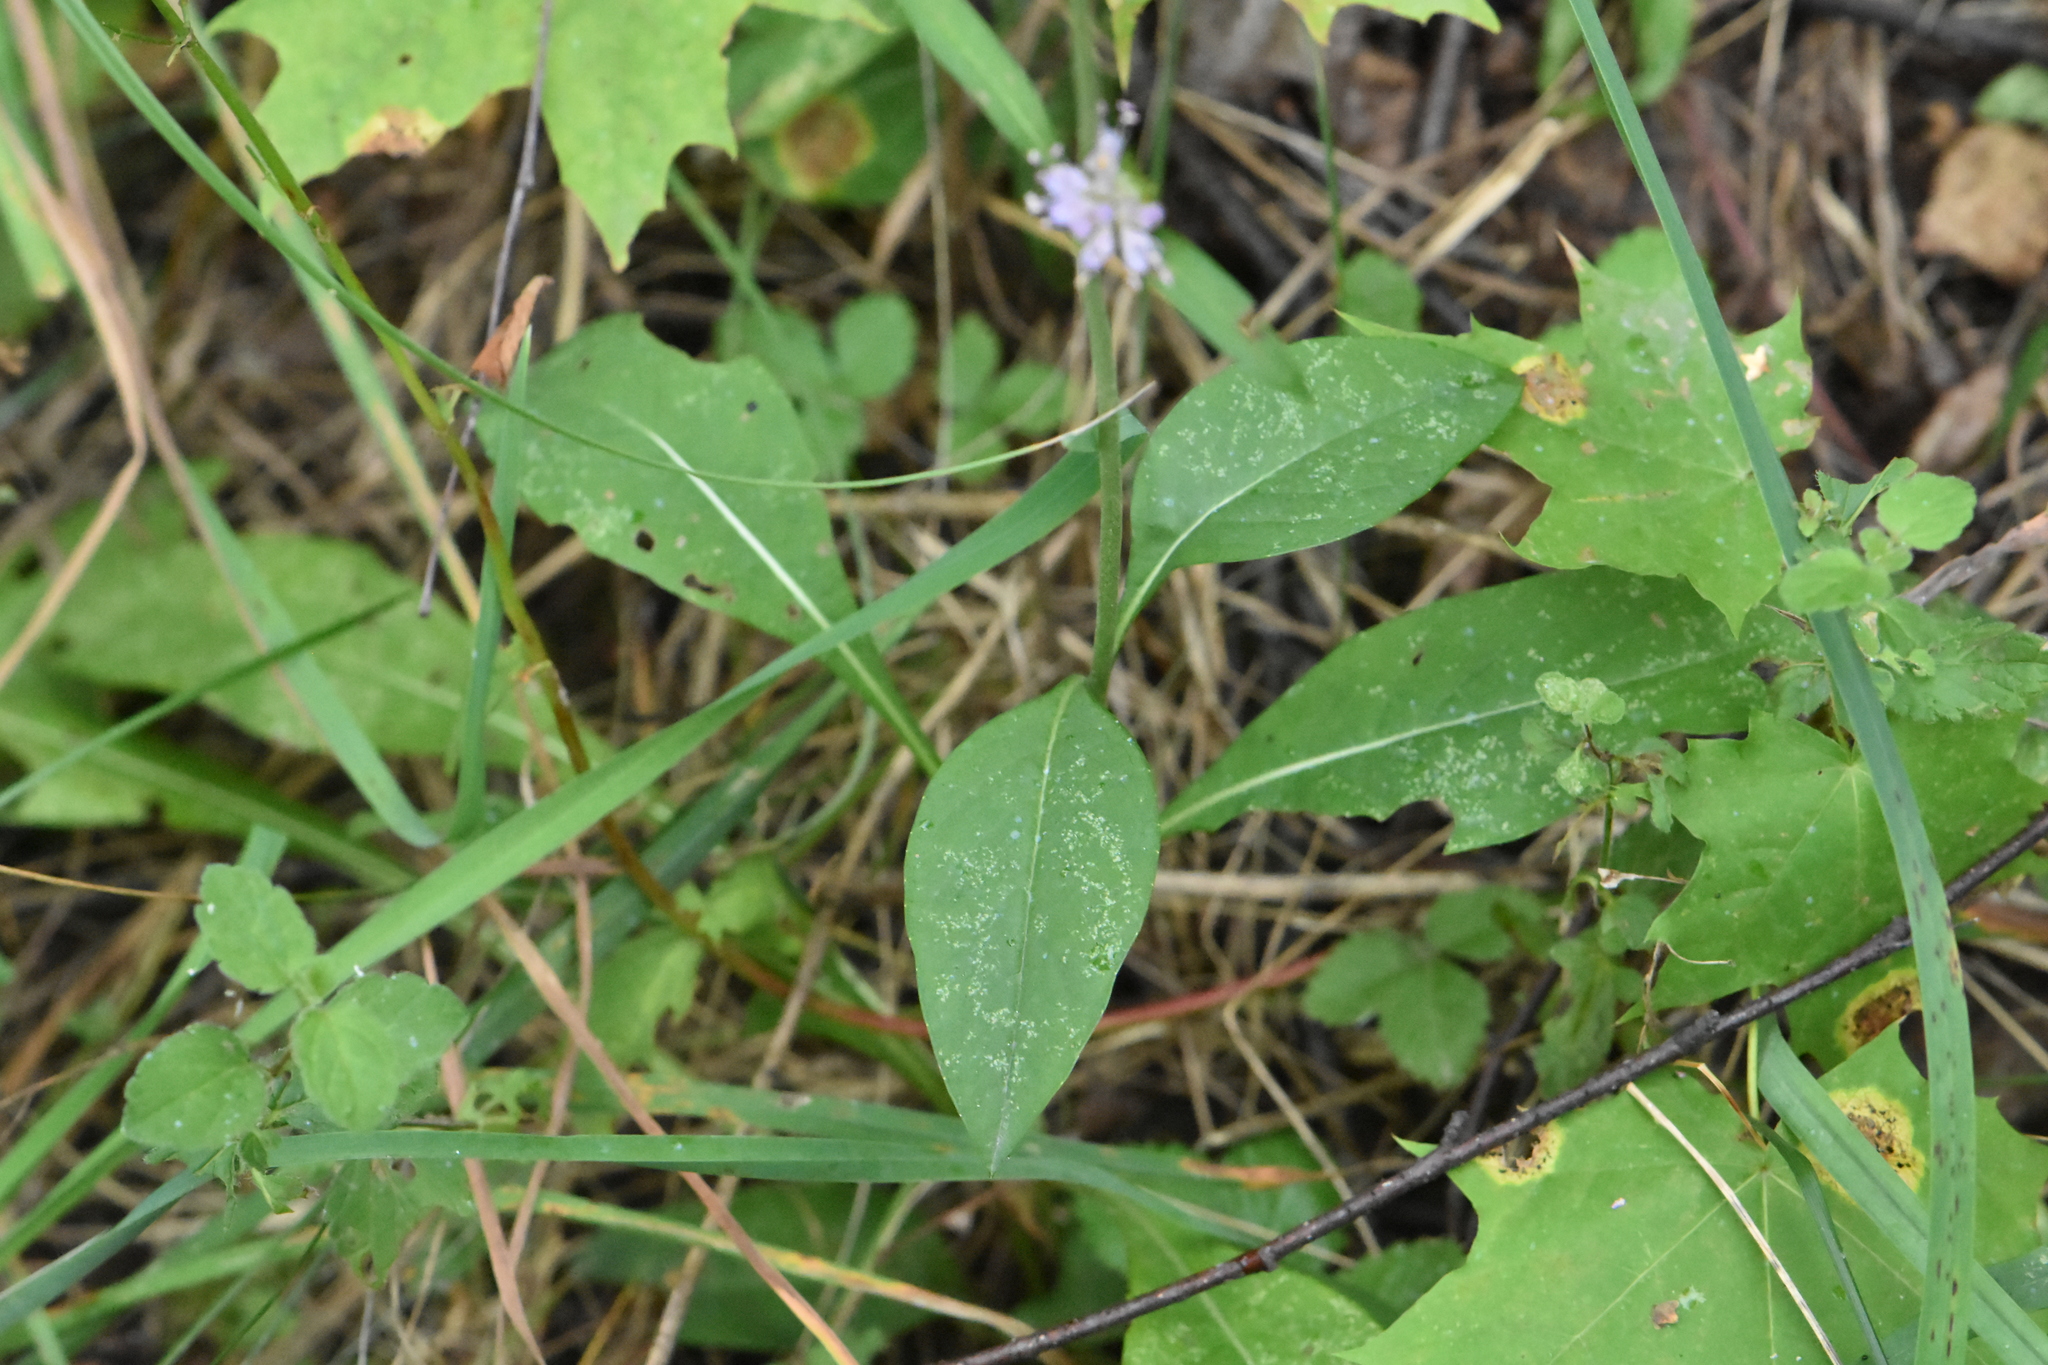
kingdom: Plantae
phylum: Tracheophyta
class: Magnoliopsida
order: Dipsacales
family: Caprifoliaceae
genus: Succisa
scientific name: Succisa pratensis
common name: Devil's-bit
